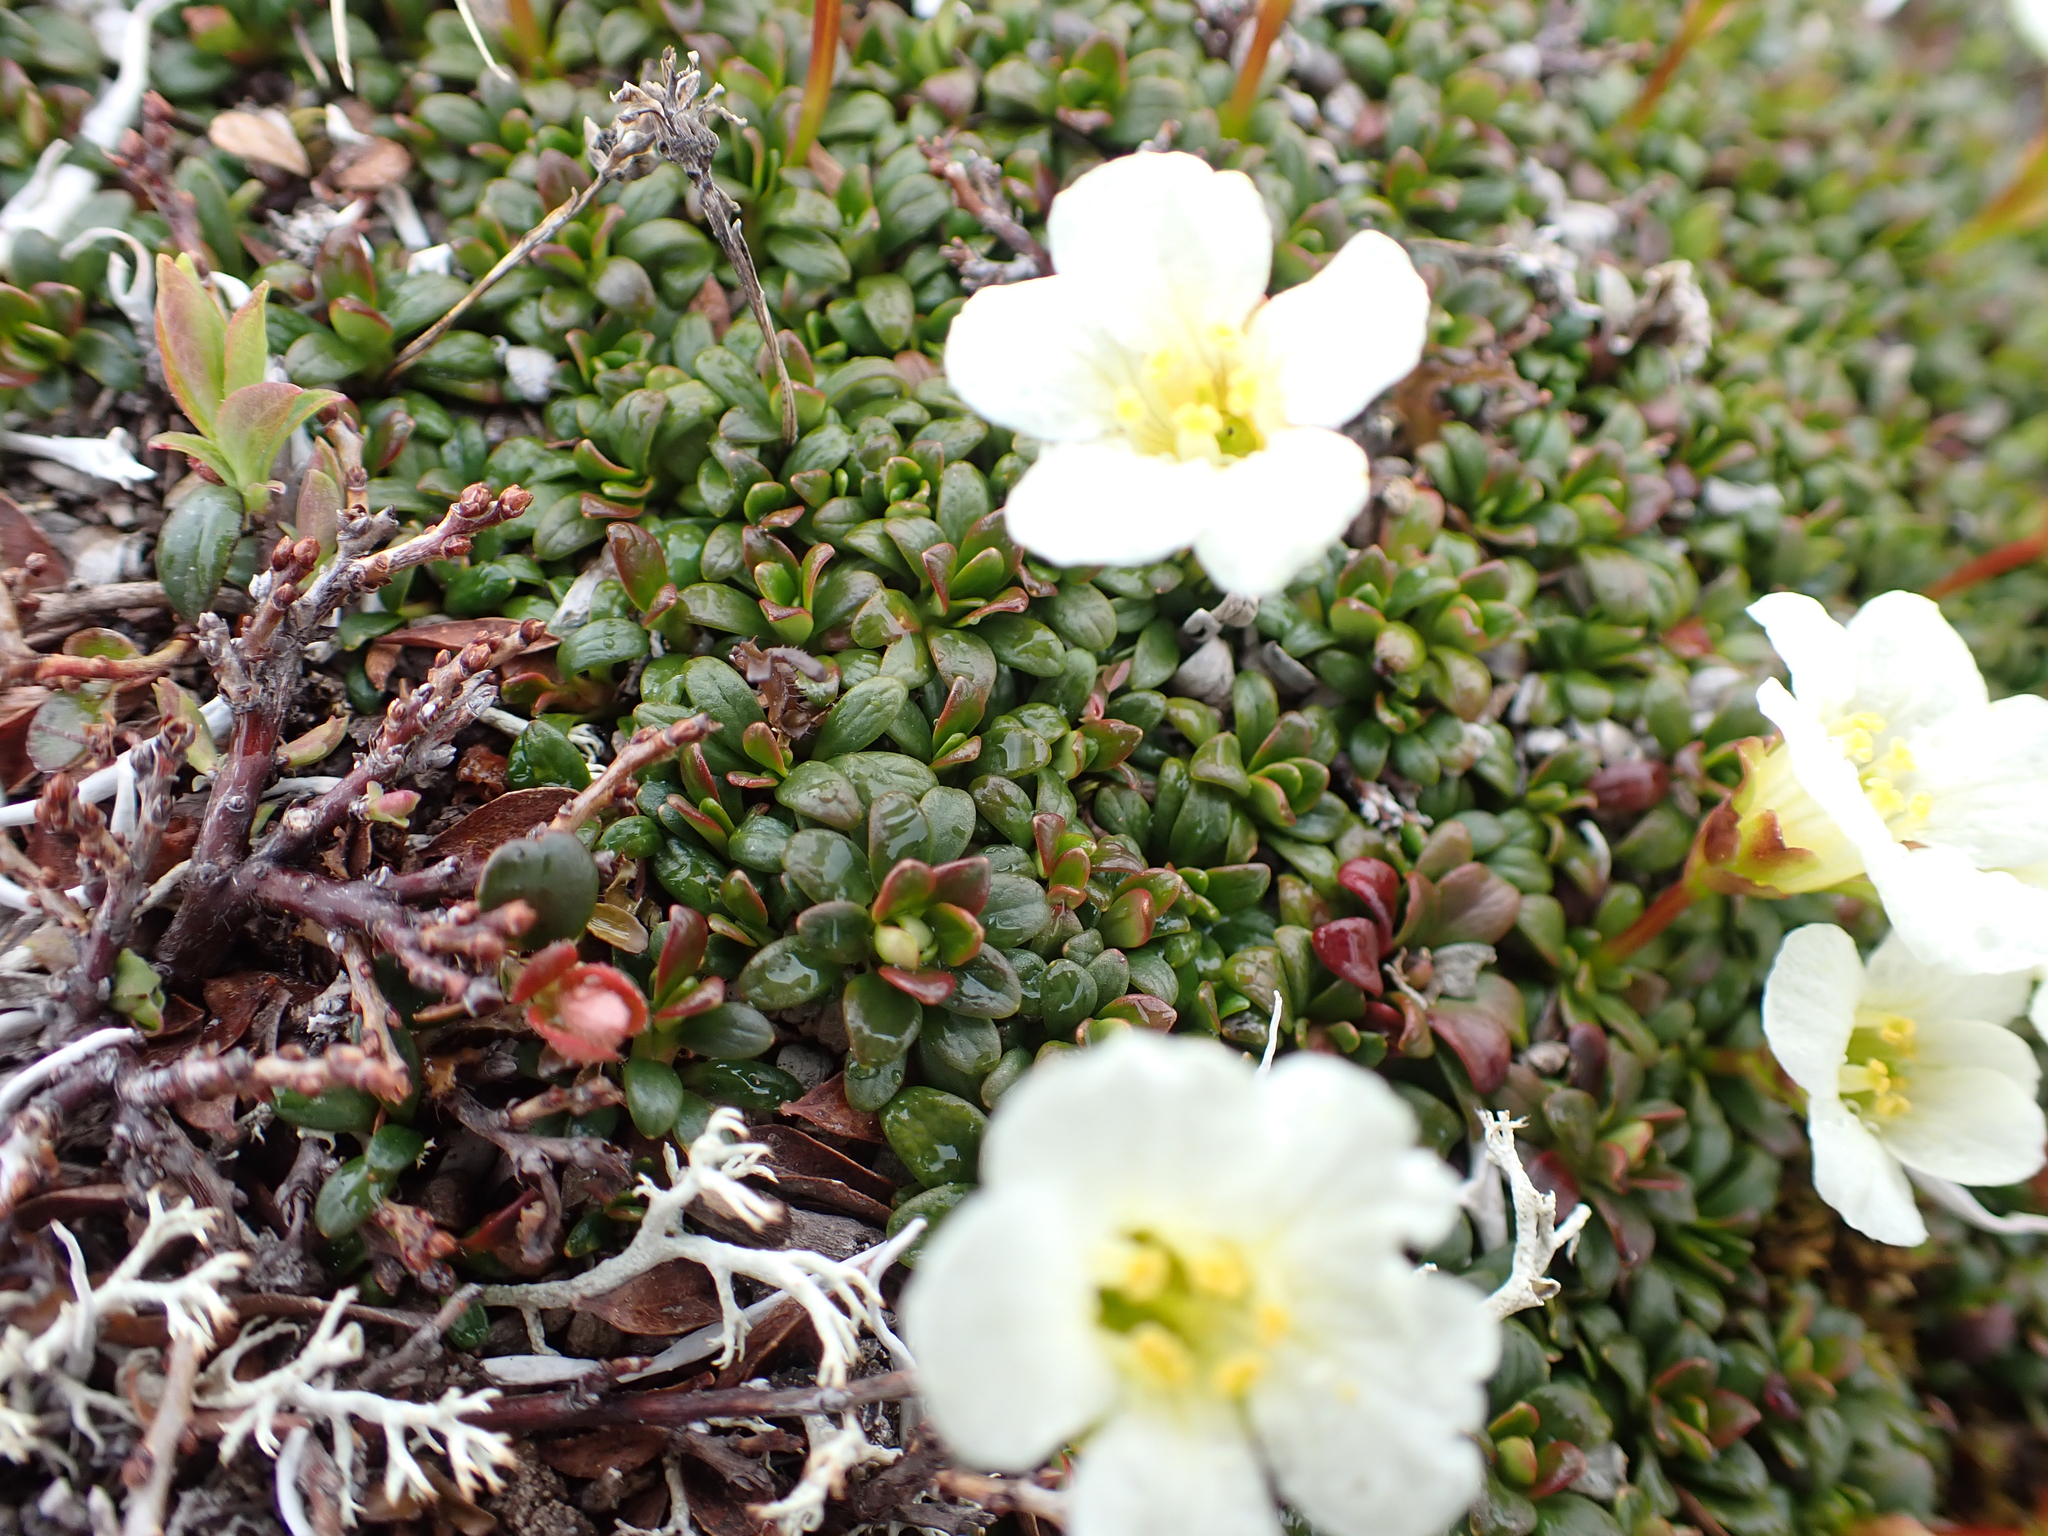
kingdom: Plantae
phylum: Tracheophyta
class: Magnoliopsida
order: Ericales
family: Diapensiaceae
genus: Diapensia
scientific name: Diapensia obovata
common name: Alaska diapensia
